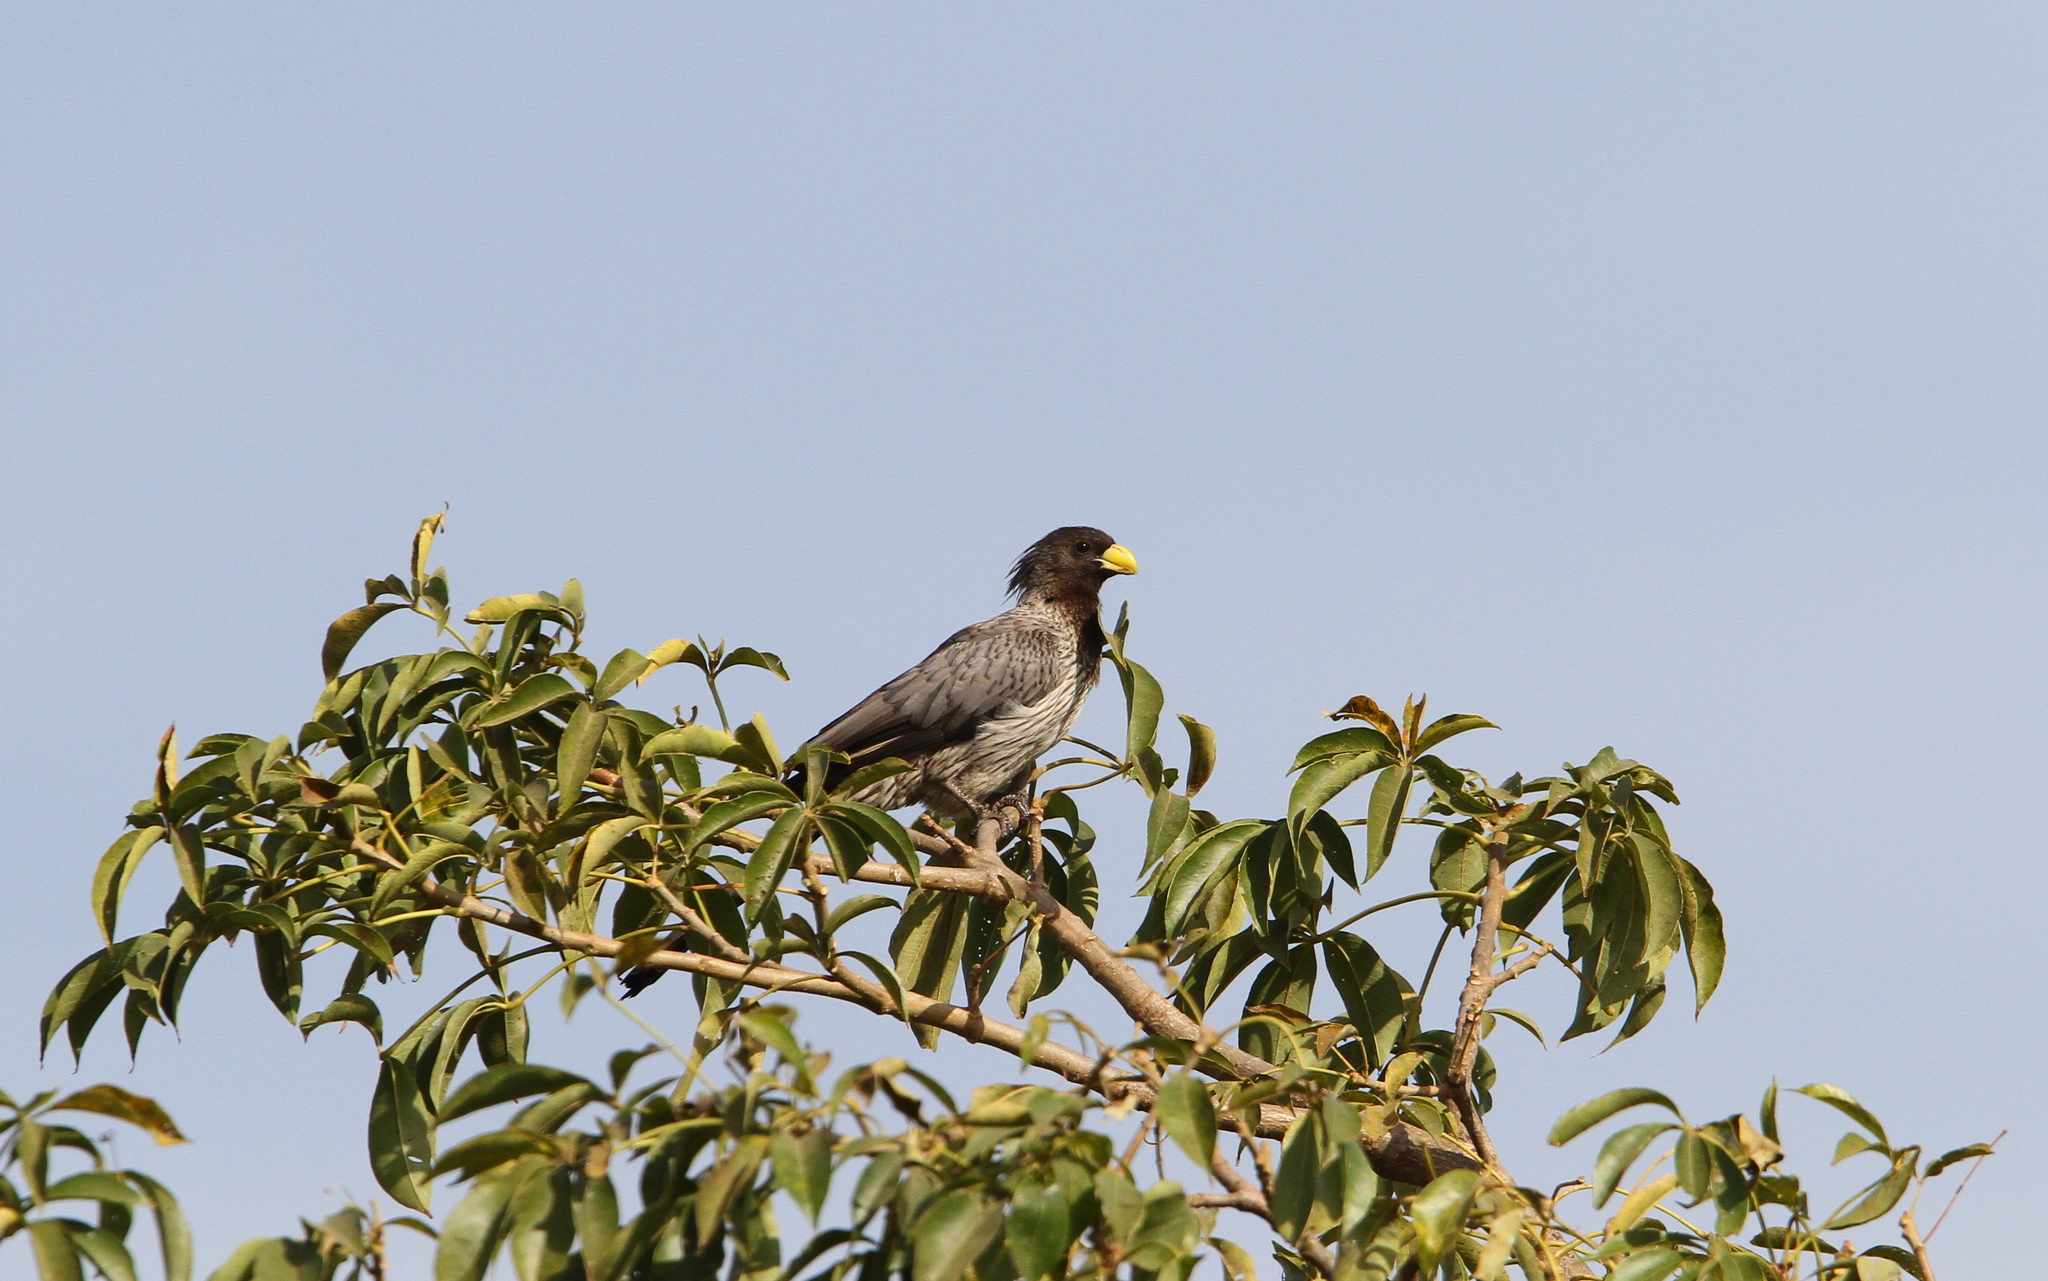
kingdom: Animalia
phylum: Chordata
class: Aves
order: Musophagiformes
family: Musophagidae
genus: Crinifer
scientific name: Crinifer piscator
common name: Western plantain-eater
